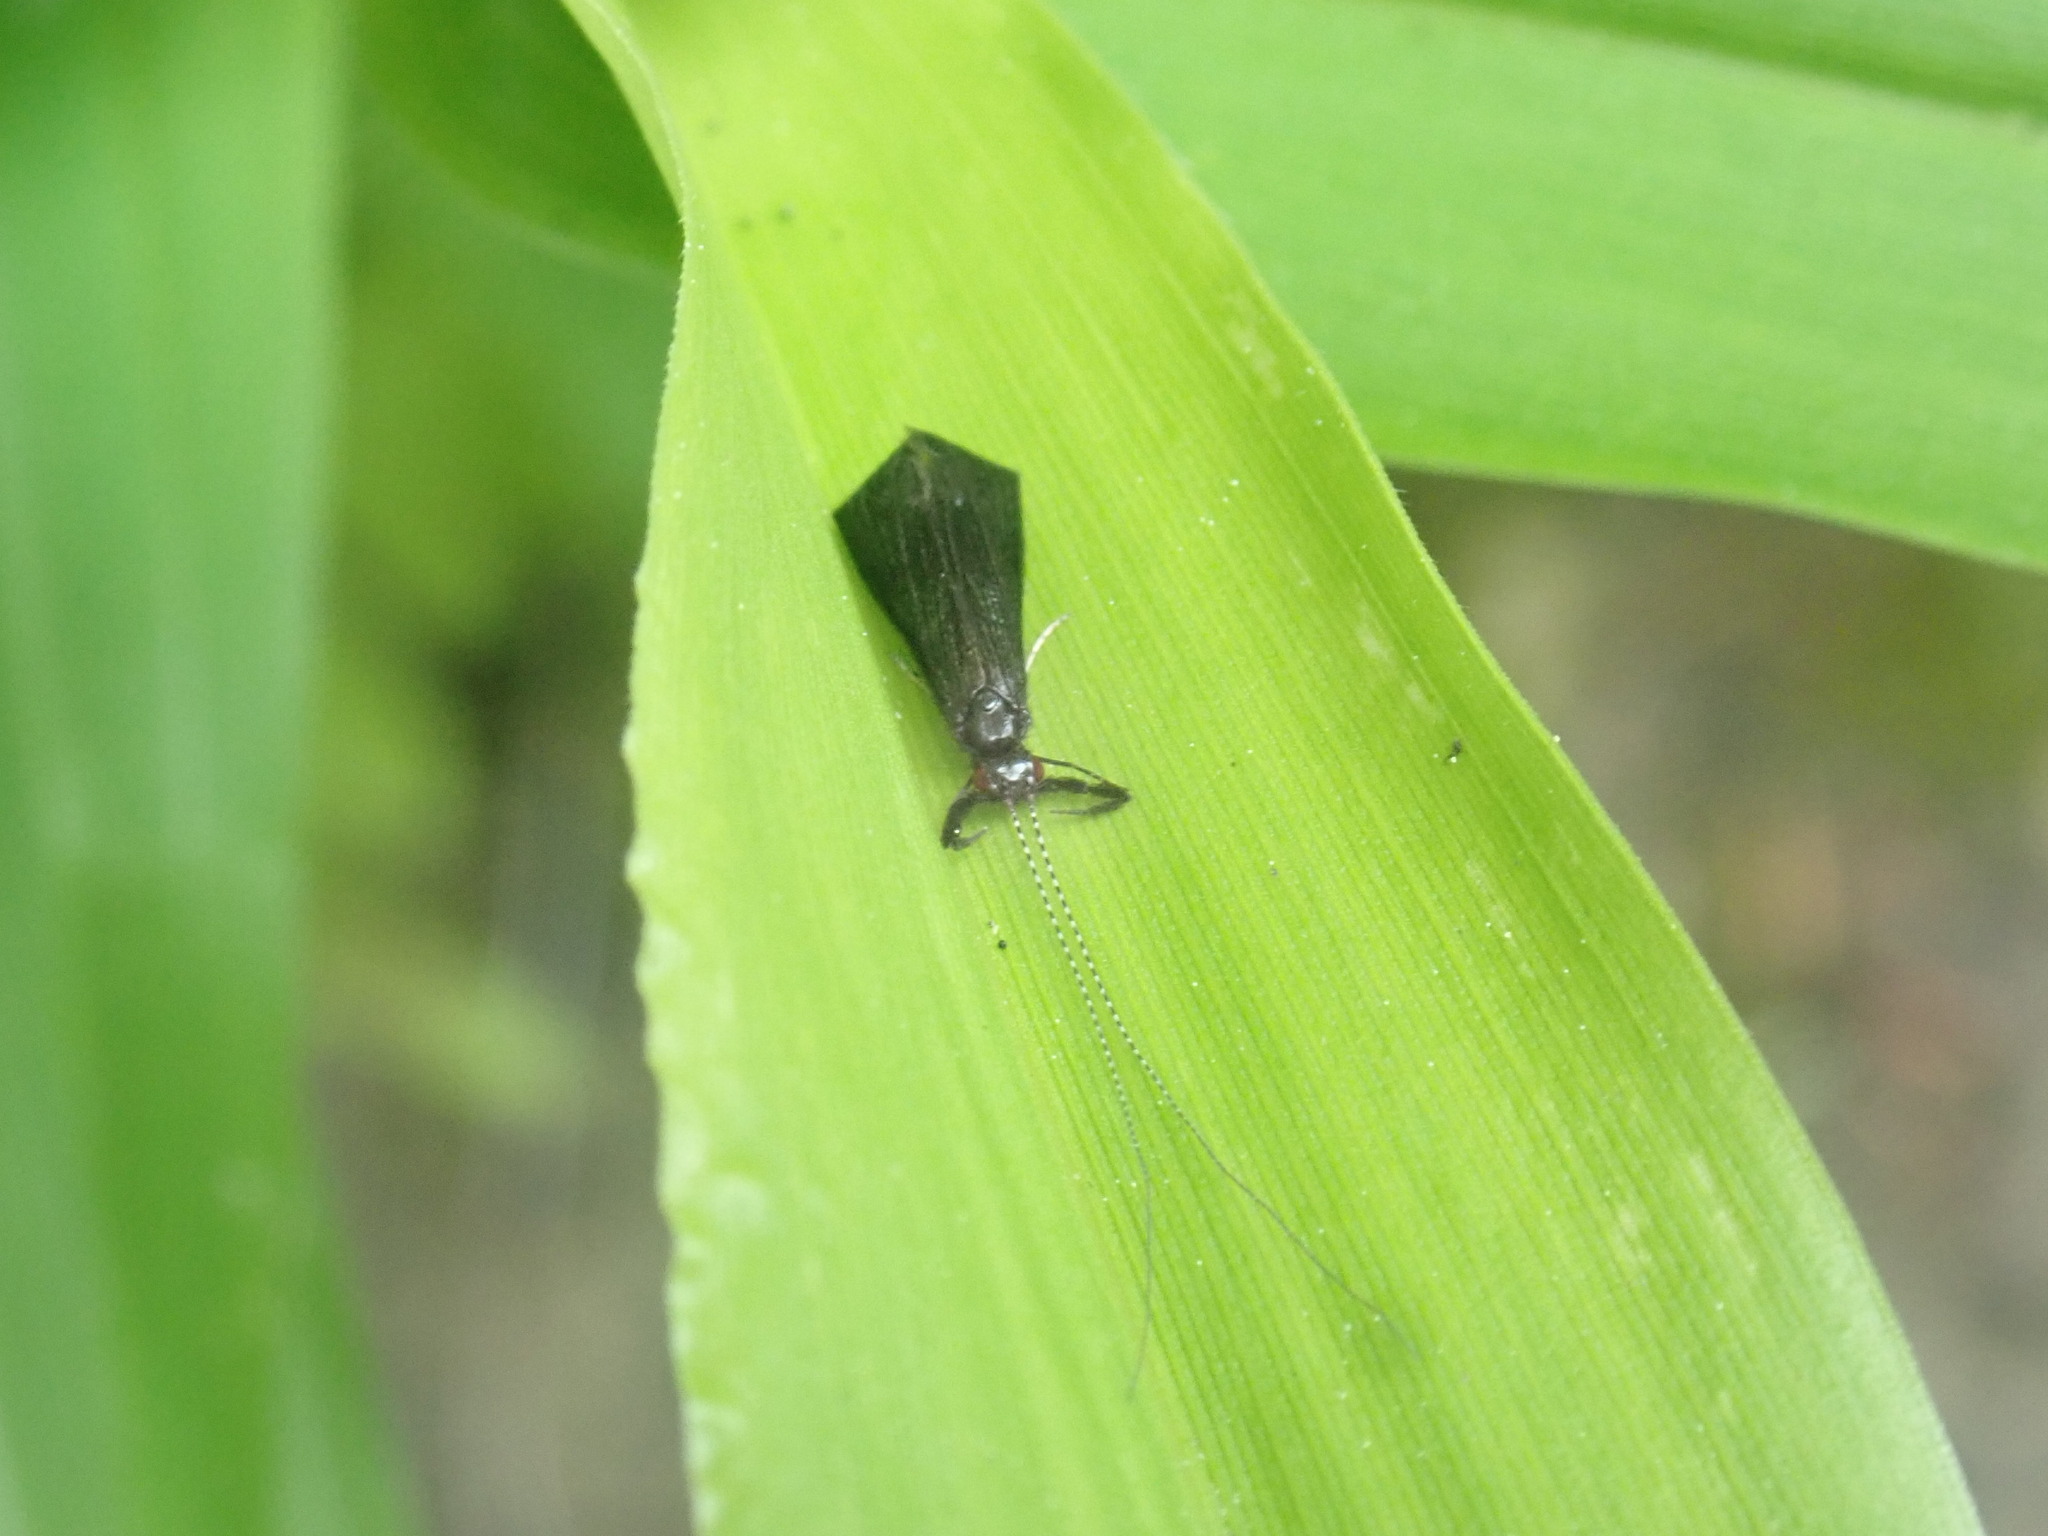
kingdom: Animalia
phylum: Arthropoda
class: Insecta
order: Trichoptera
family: Leptoceridae
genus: Mystacides
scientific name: Mystacides sepulchralis
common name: Black dancer caddisfly
